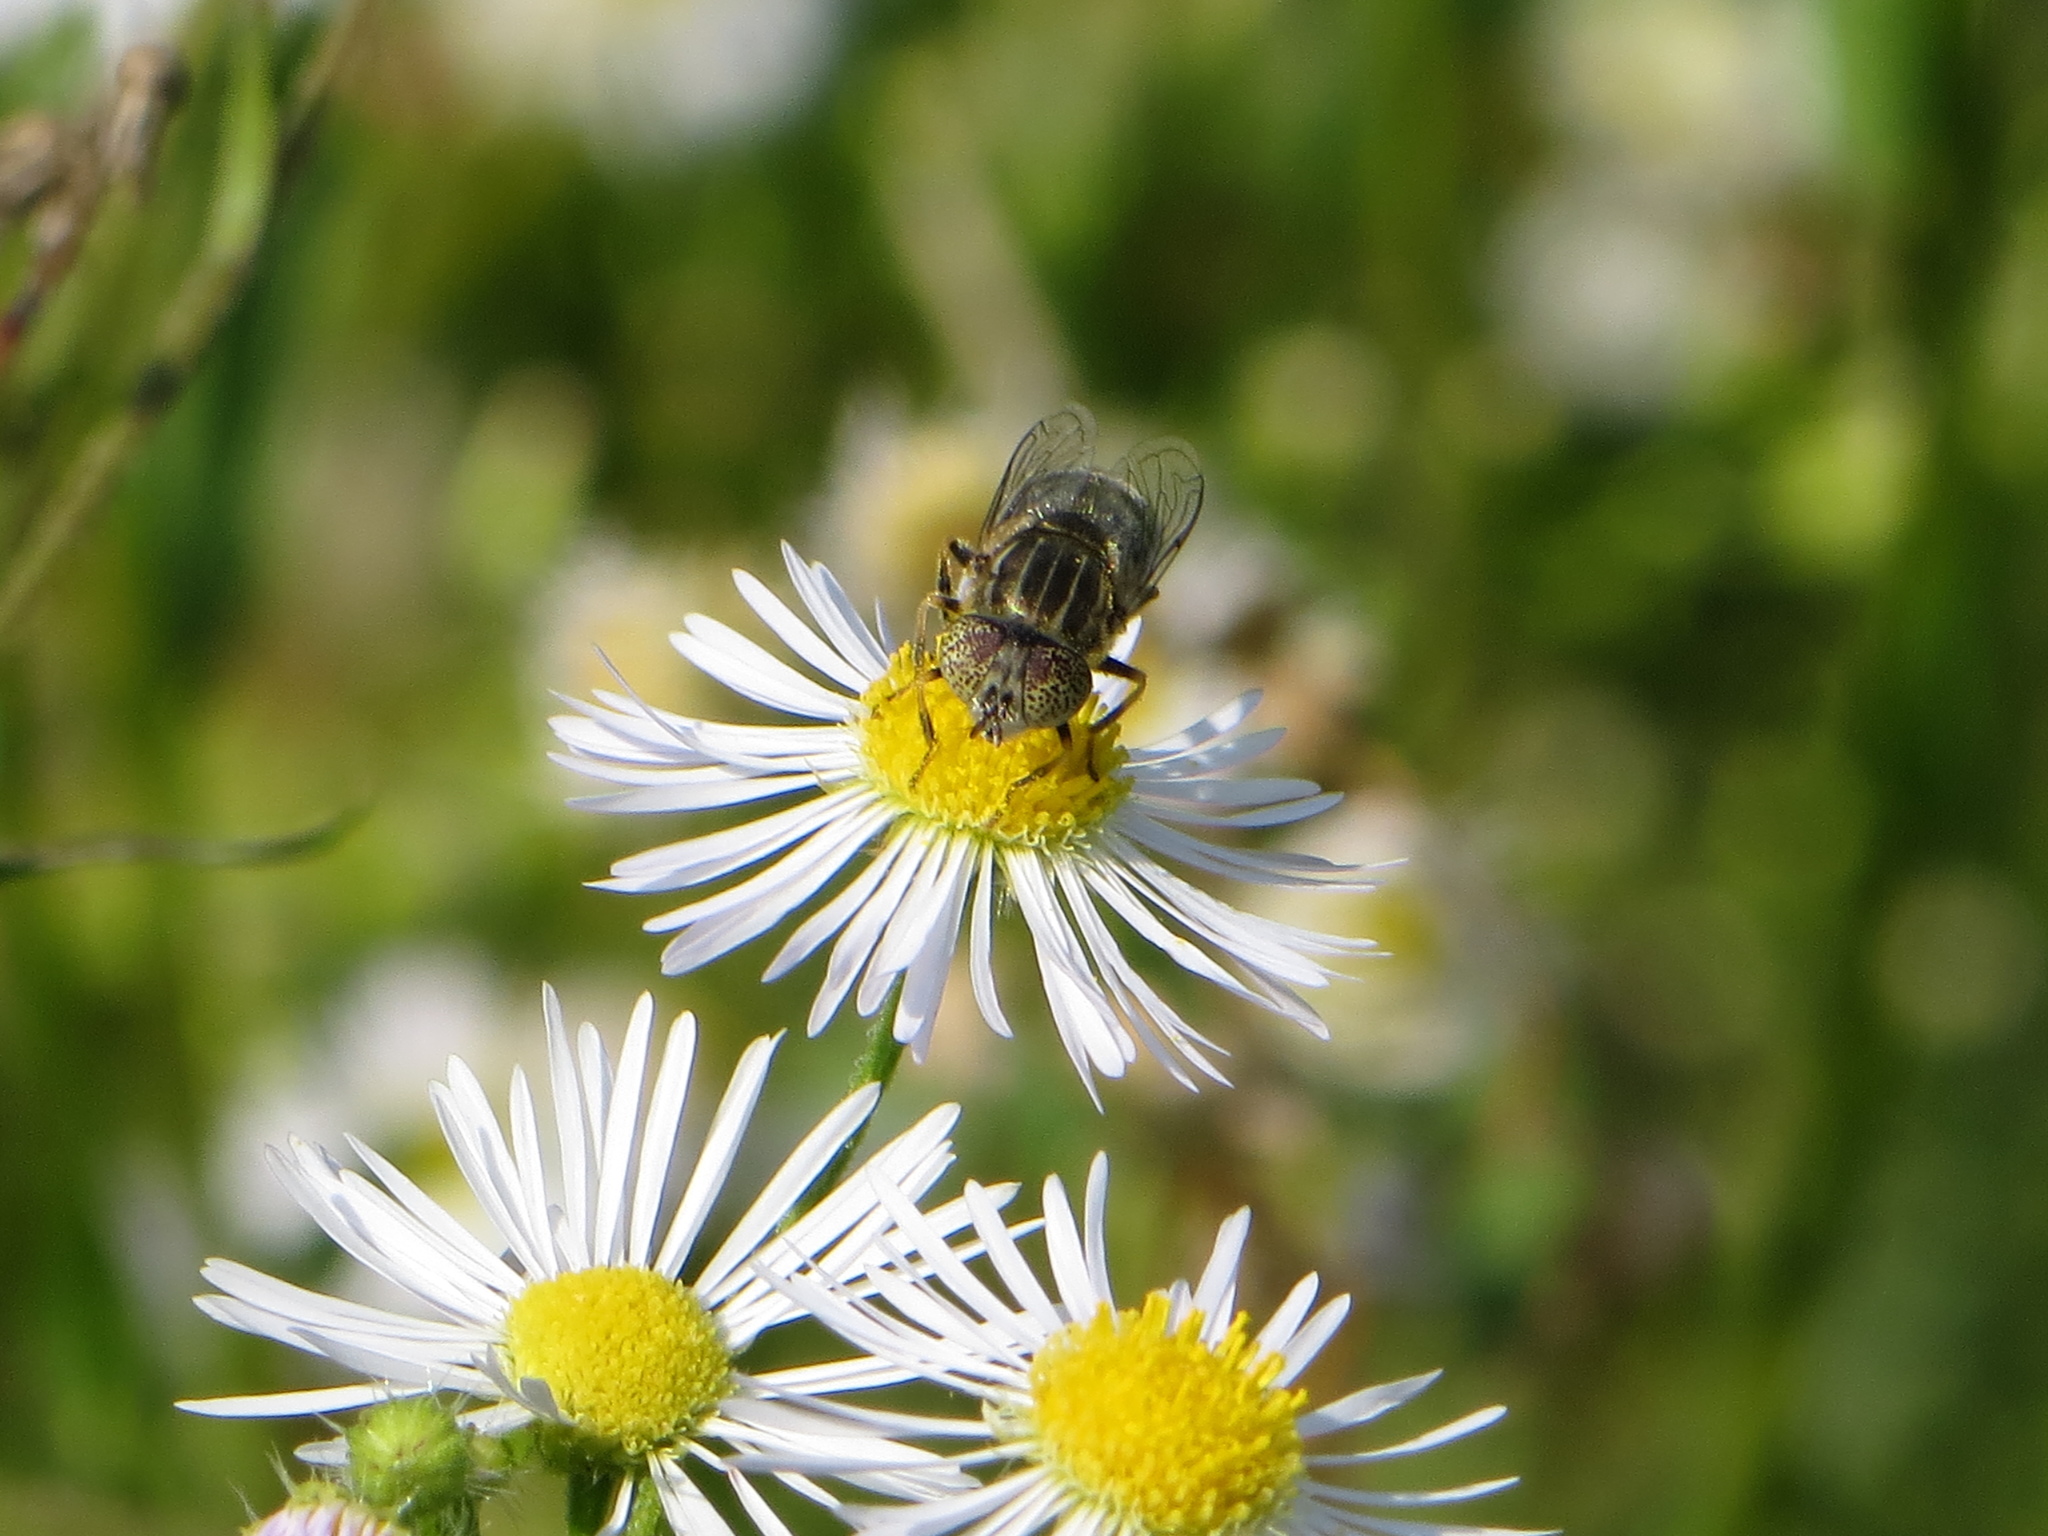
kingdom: Animalia
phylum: Arthropoda
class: Insecta
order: Diptera
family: Syrphidae
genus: Eristalinus
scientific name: Eristalinus aeneus
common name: Syrphid fly
